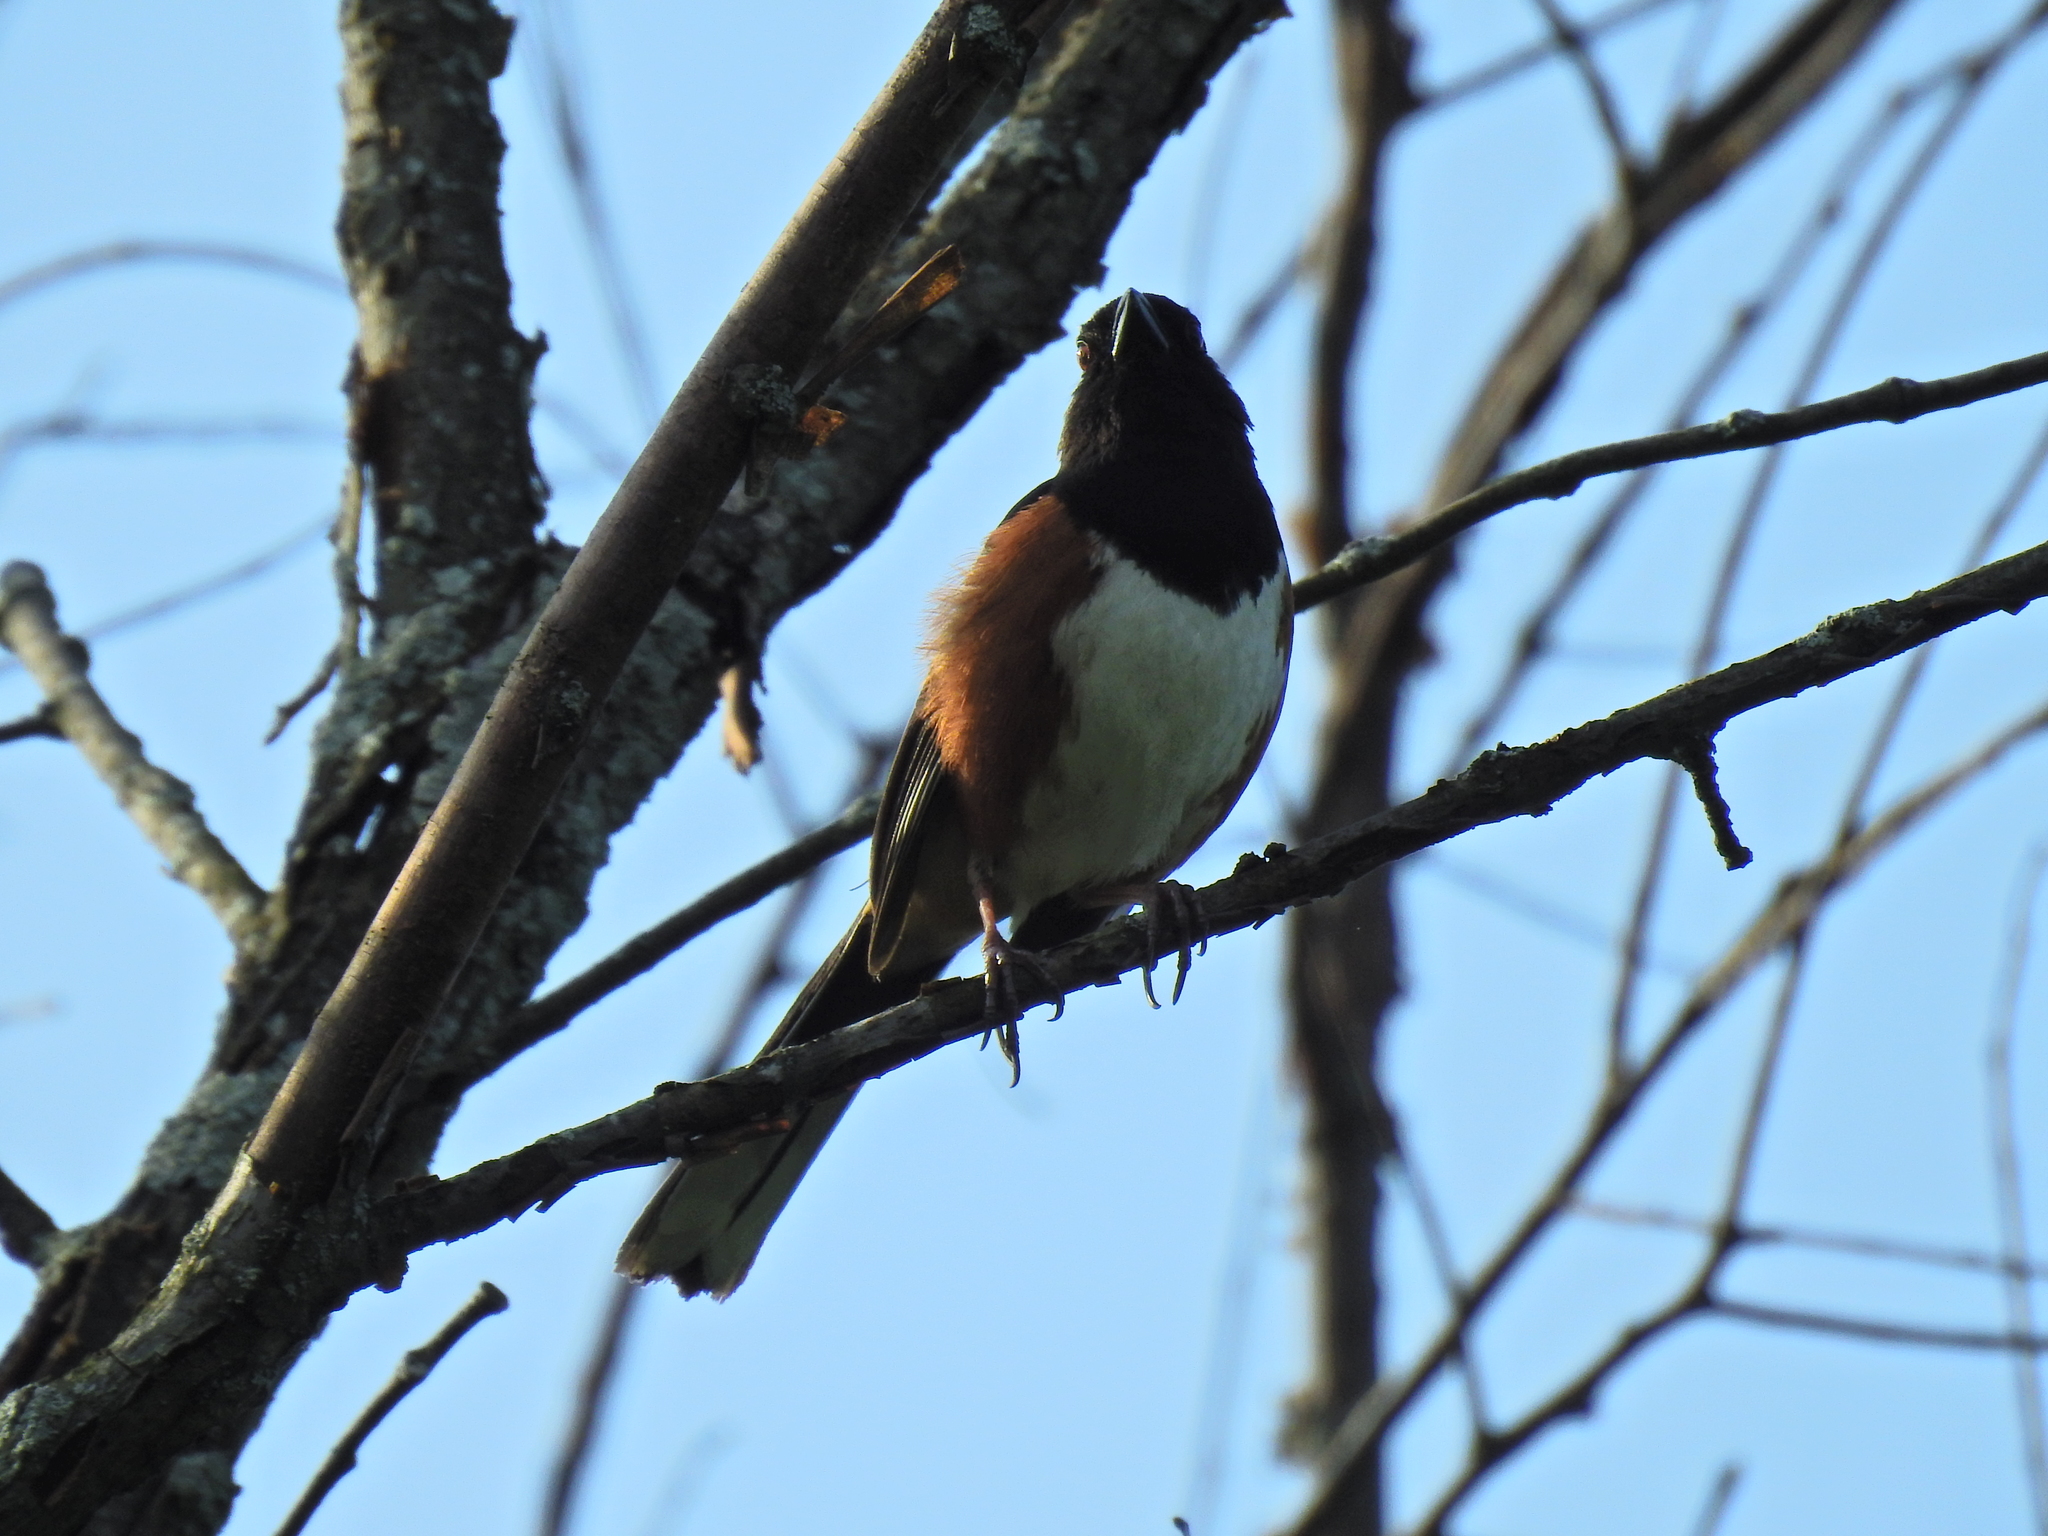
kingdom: Animalia
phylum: Chordata
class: Aves
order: Passeriformes
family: Passerellidae
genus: Pipilo
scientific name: Pipilo erythrophthalmus
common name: Eastern towhee
